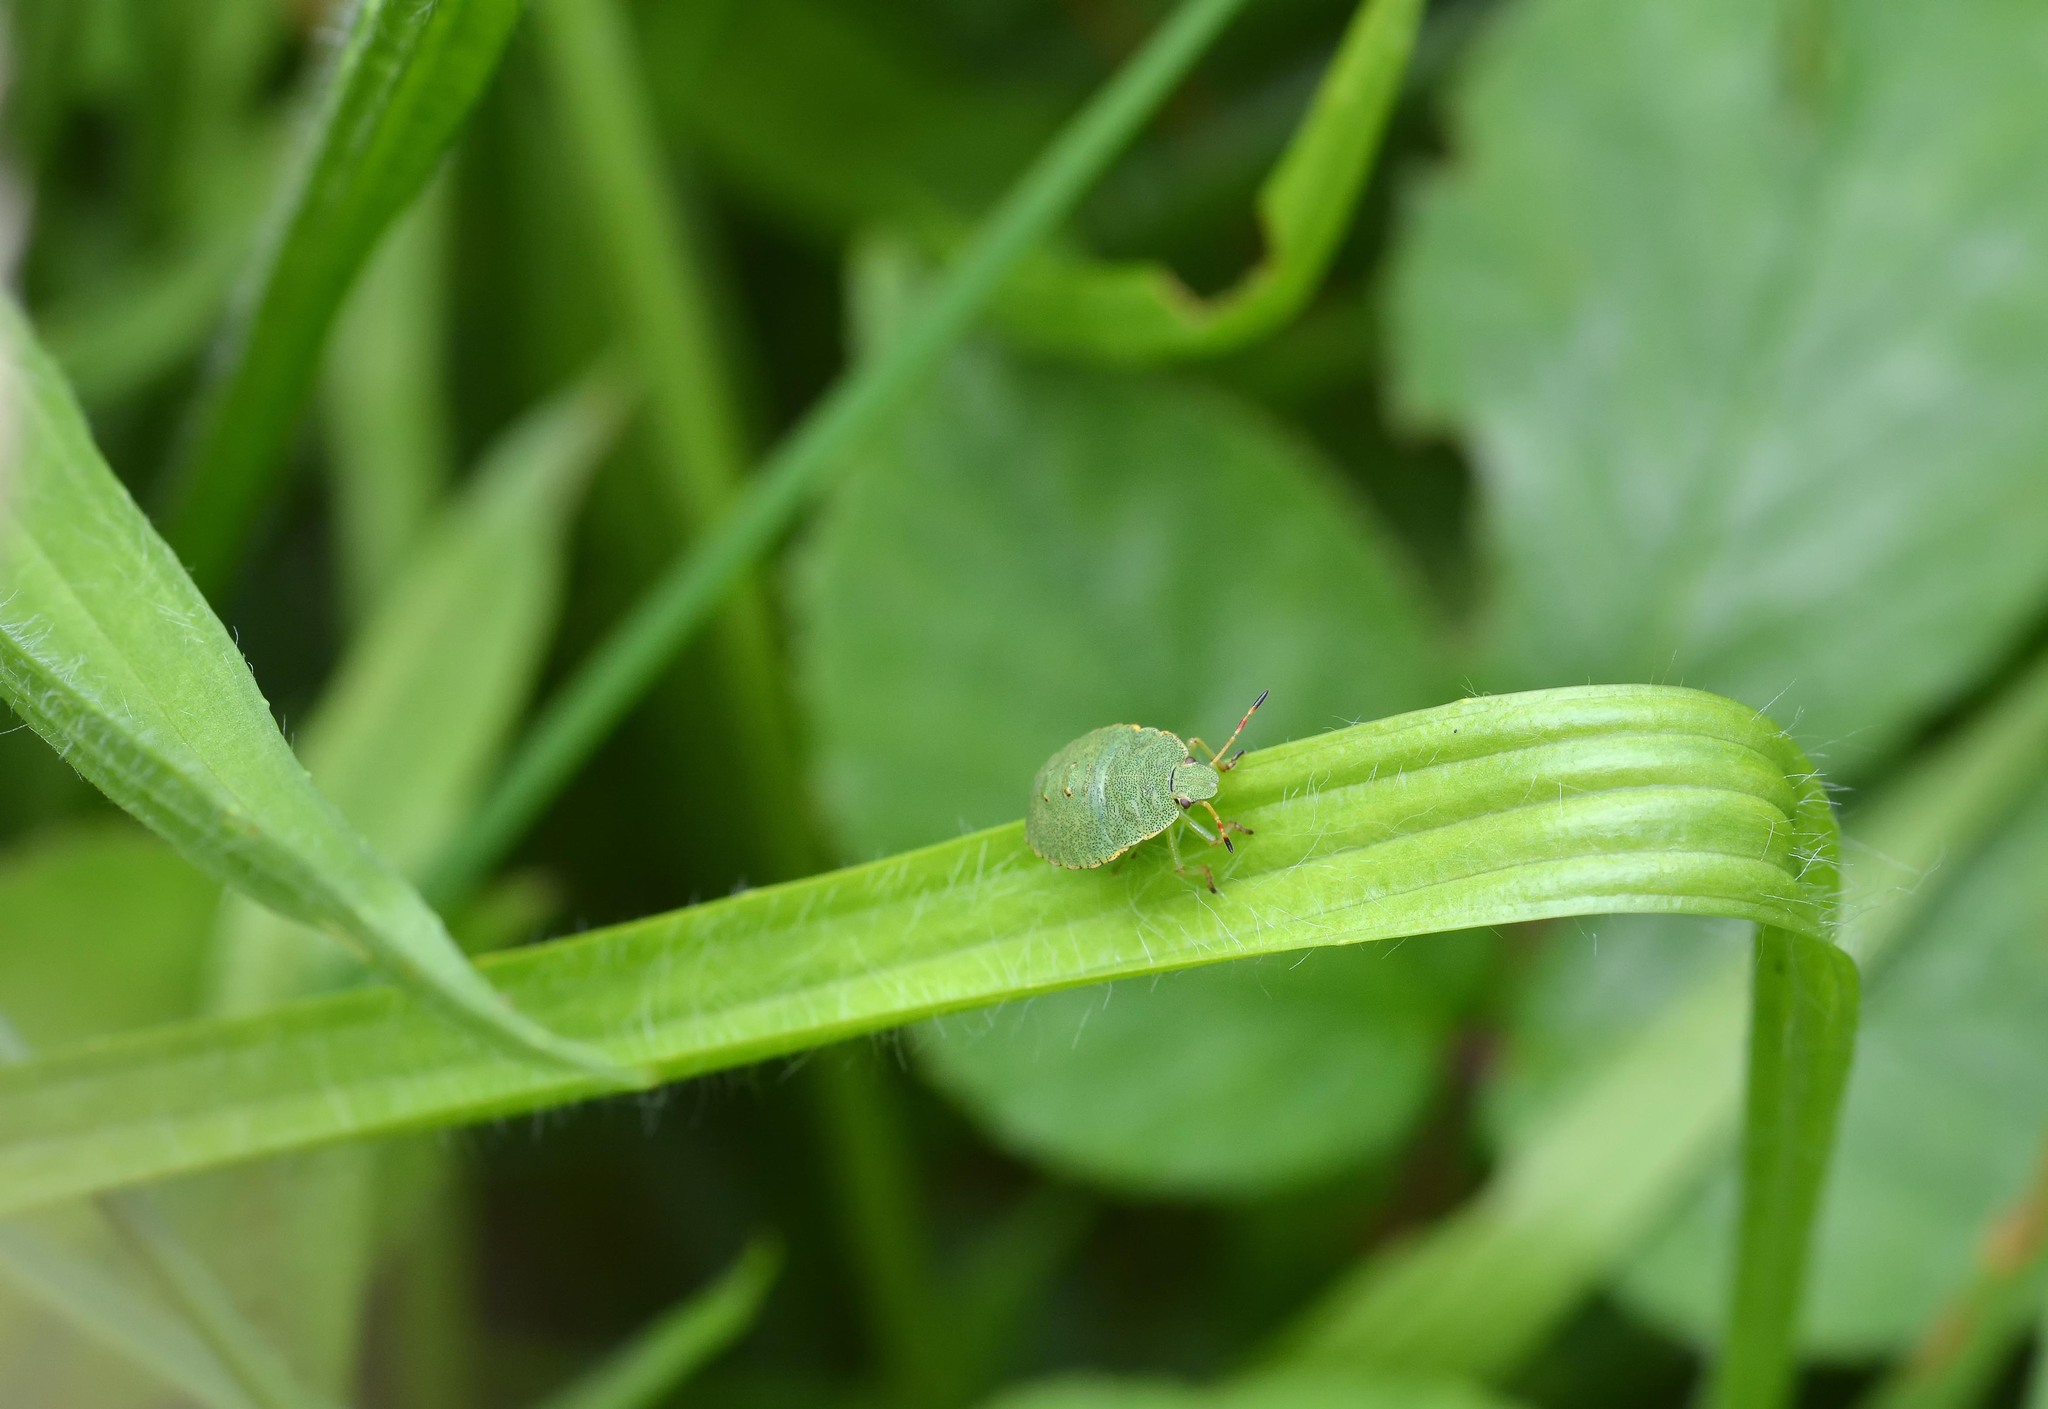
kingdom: Animalia
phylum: Arthropoda
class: Insecta
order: Hemiptera
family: Pentatomidae
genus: Palomena
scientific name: Palomena prasina
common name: Green shieldbug
